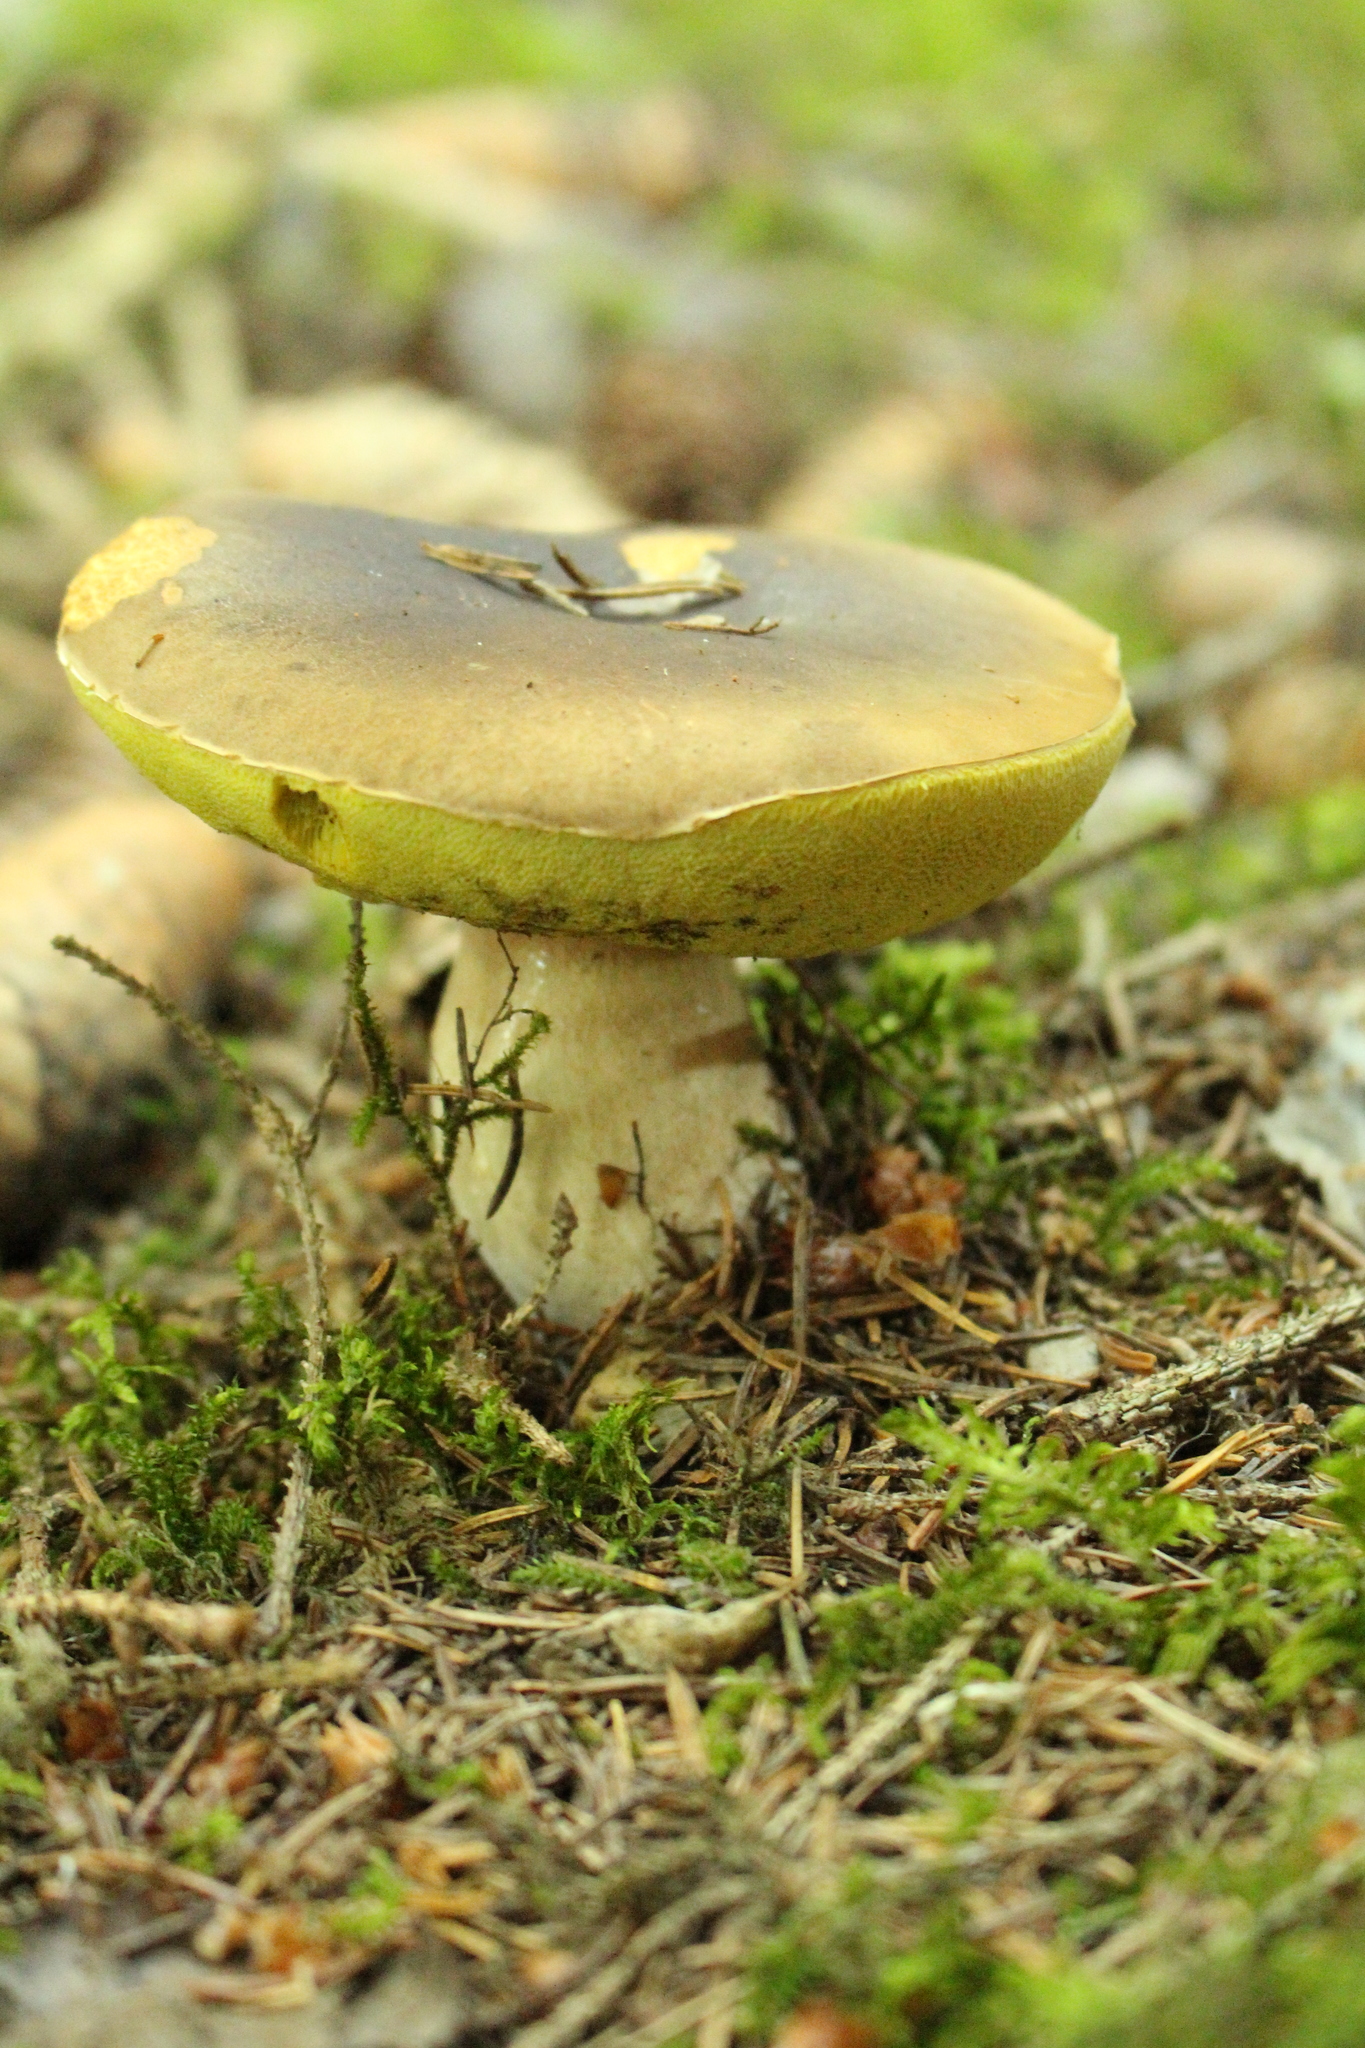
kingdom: Fungi
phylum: Basidiomycota
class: Agaricomycetes
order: Boletales
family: Boletaceae
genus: Boletus
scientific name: Boletus edulis
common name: Cep
